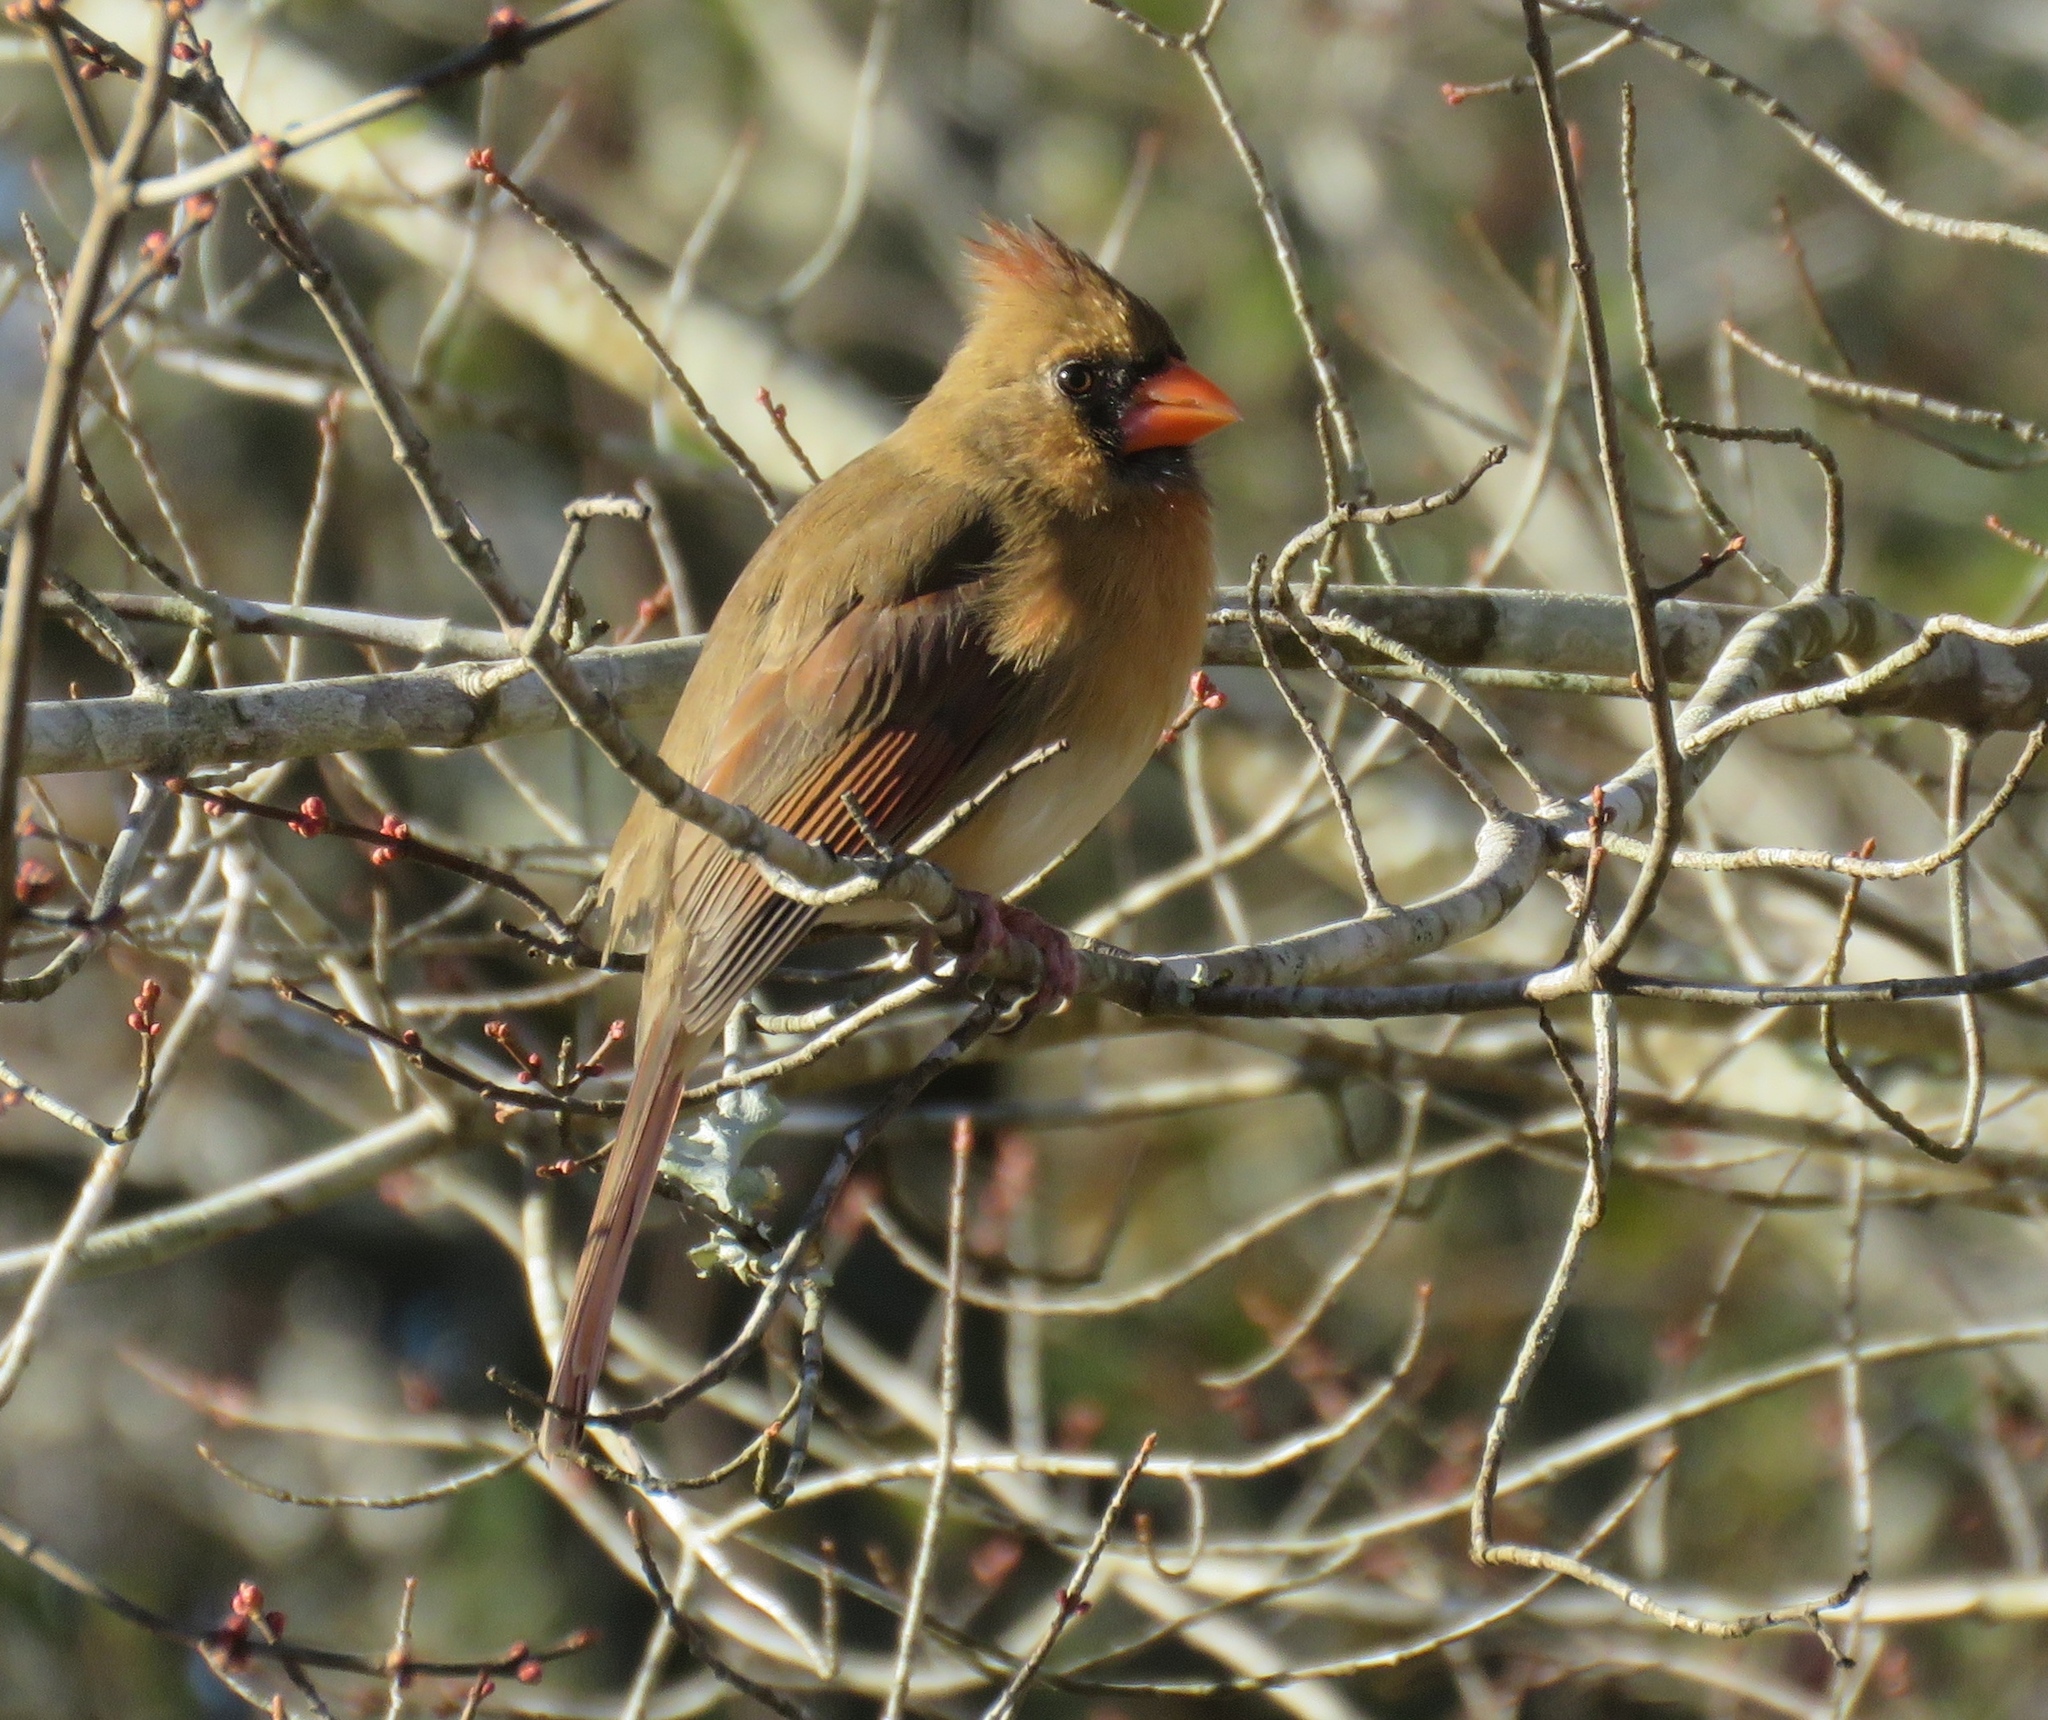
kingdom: Animalia
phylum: Chordata
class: Aves
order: Passeriformes
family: Cardinalidae
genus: Cardinalis
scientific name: Cardinalis cardinalis
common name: Northern cardinal
